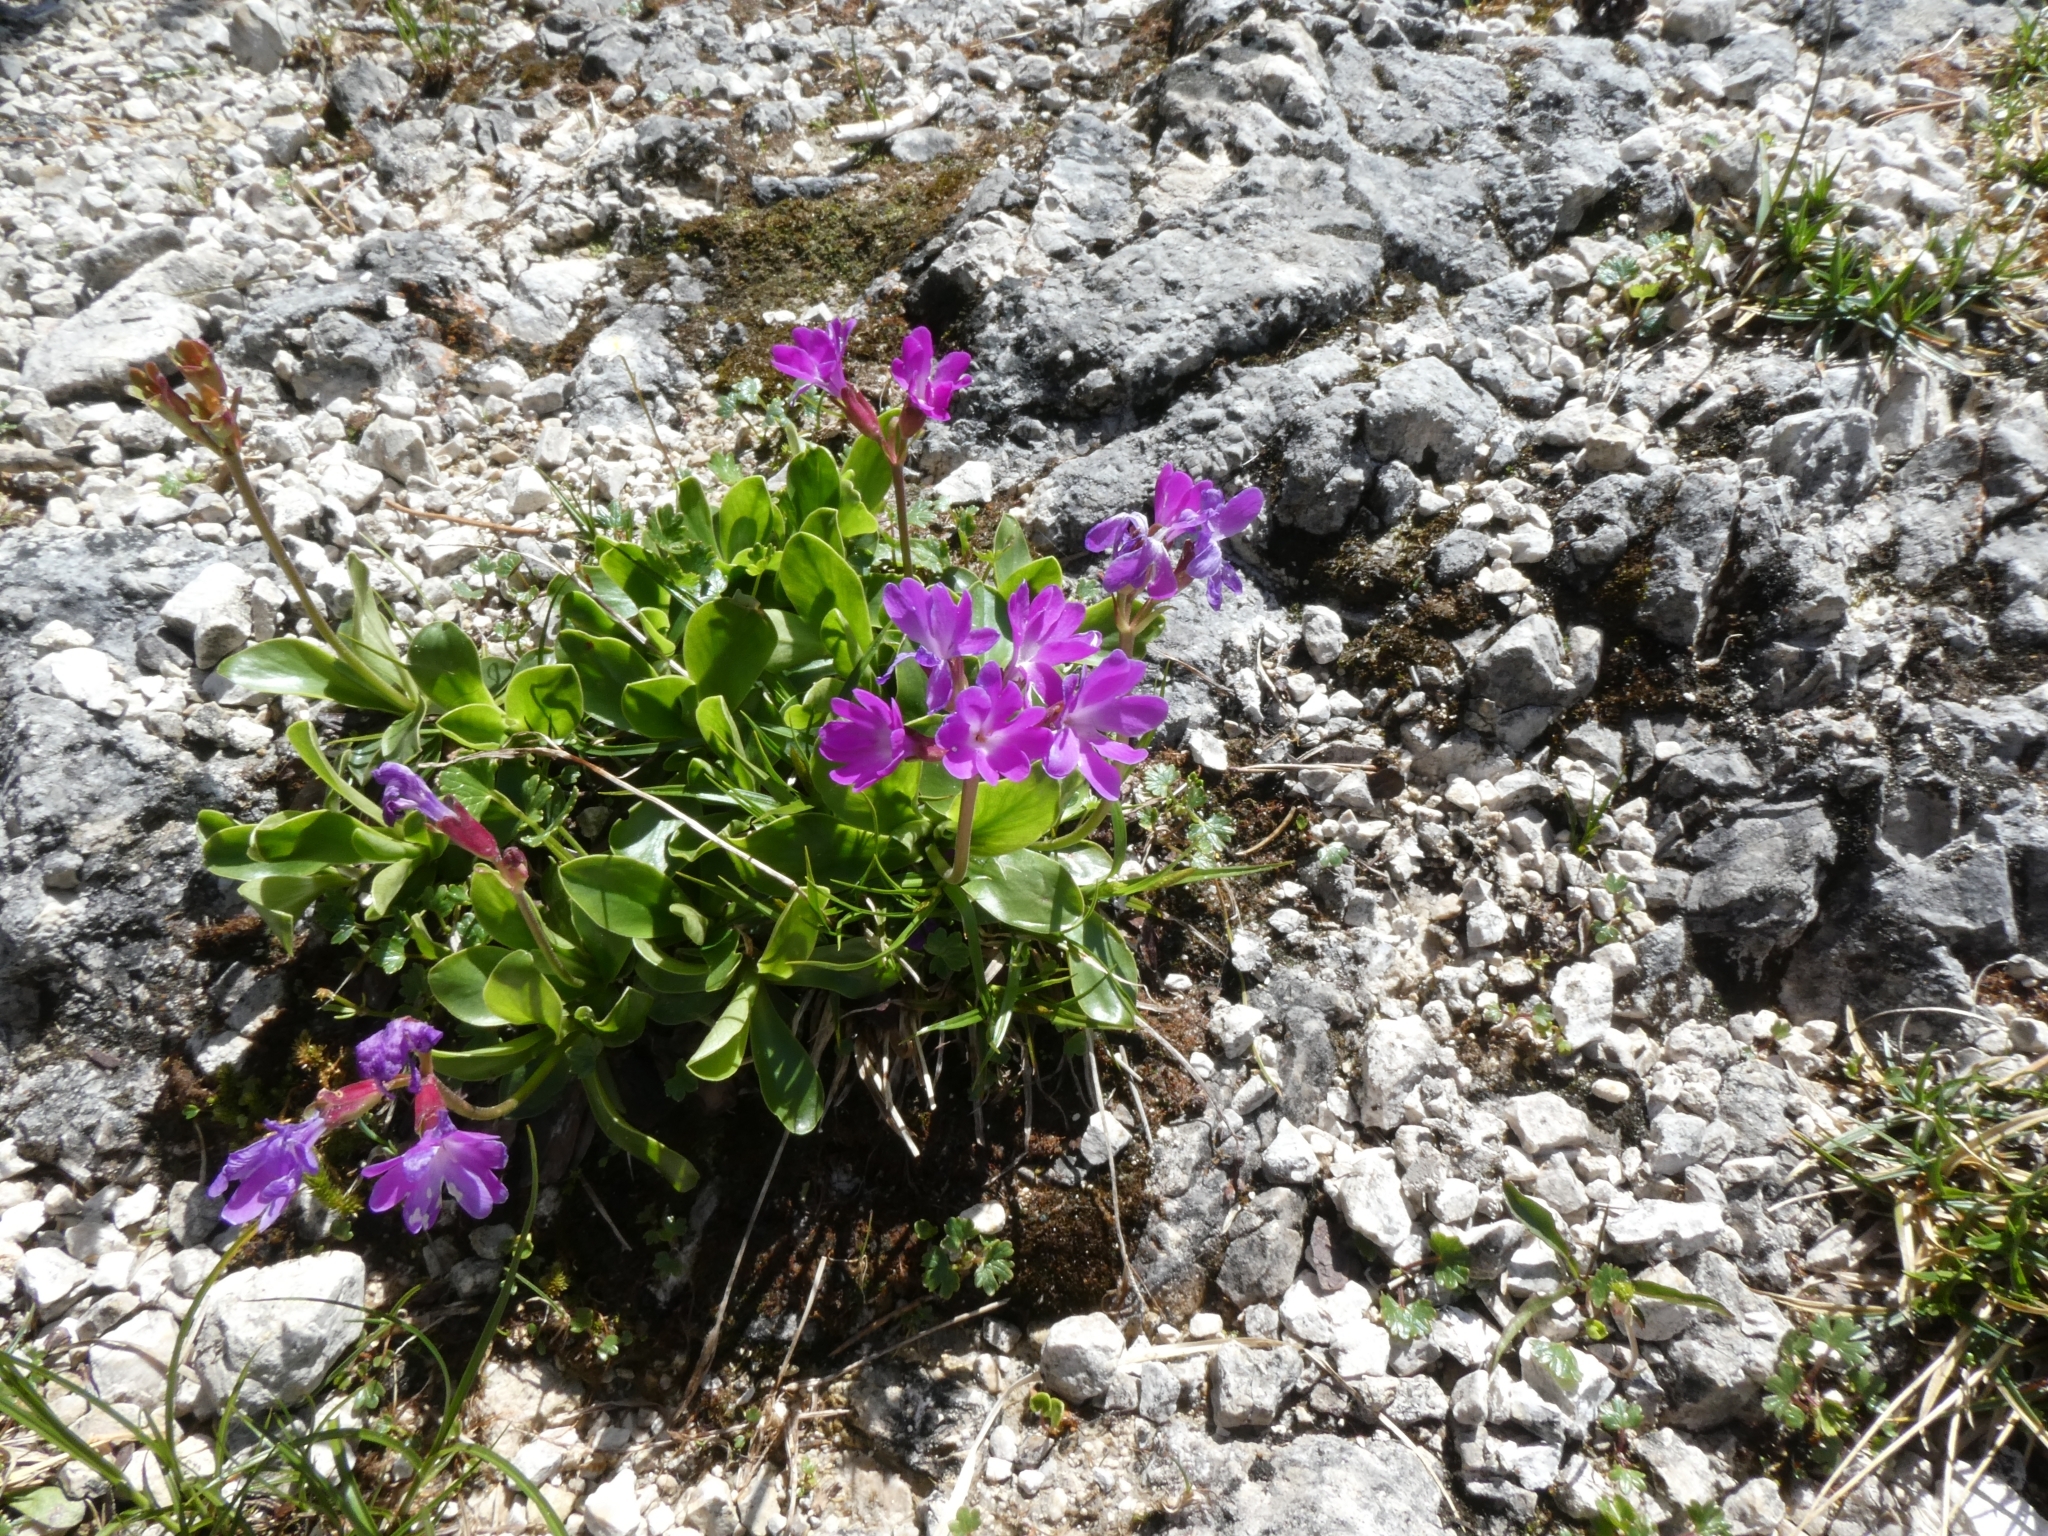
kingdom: Plantae
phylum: Tracheophyta
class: Magnoliopsida
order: Ericales
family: Primulaceae
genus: Primula
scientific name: Primula clusiana
